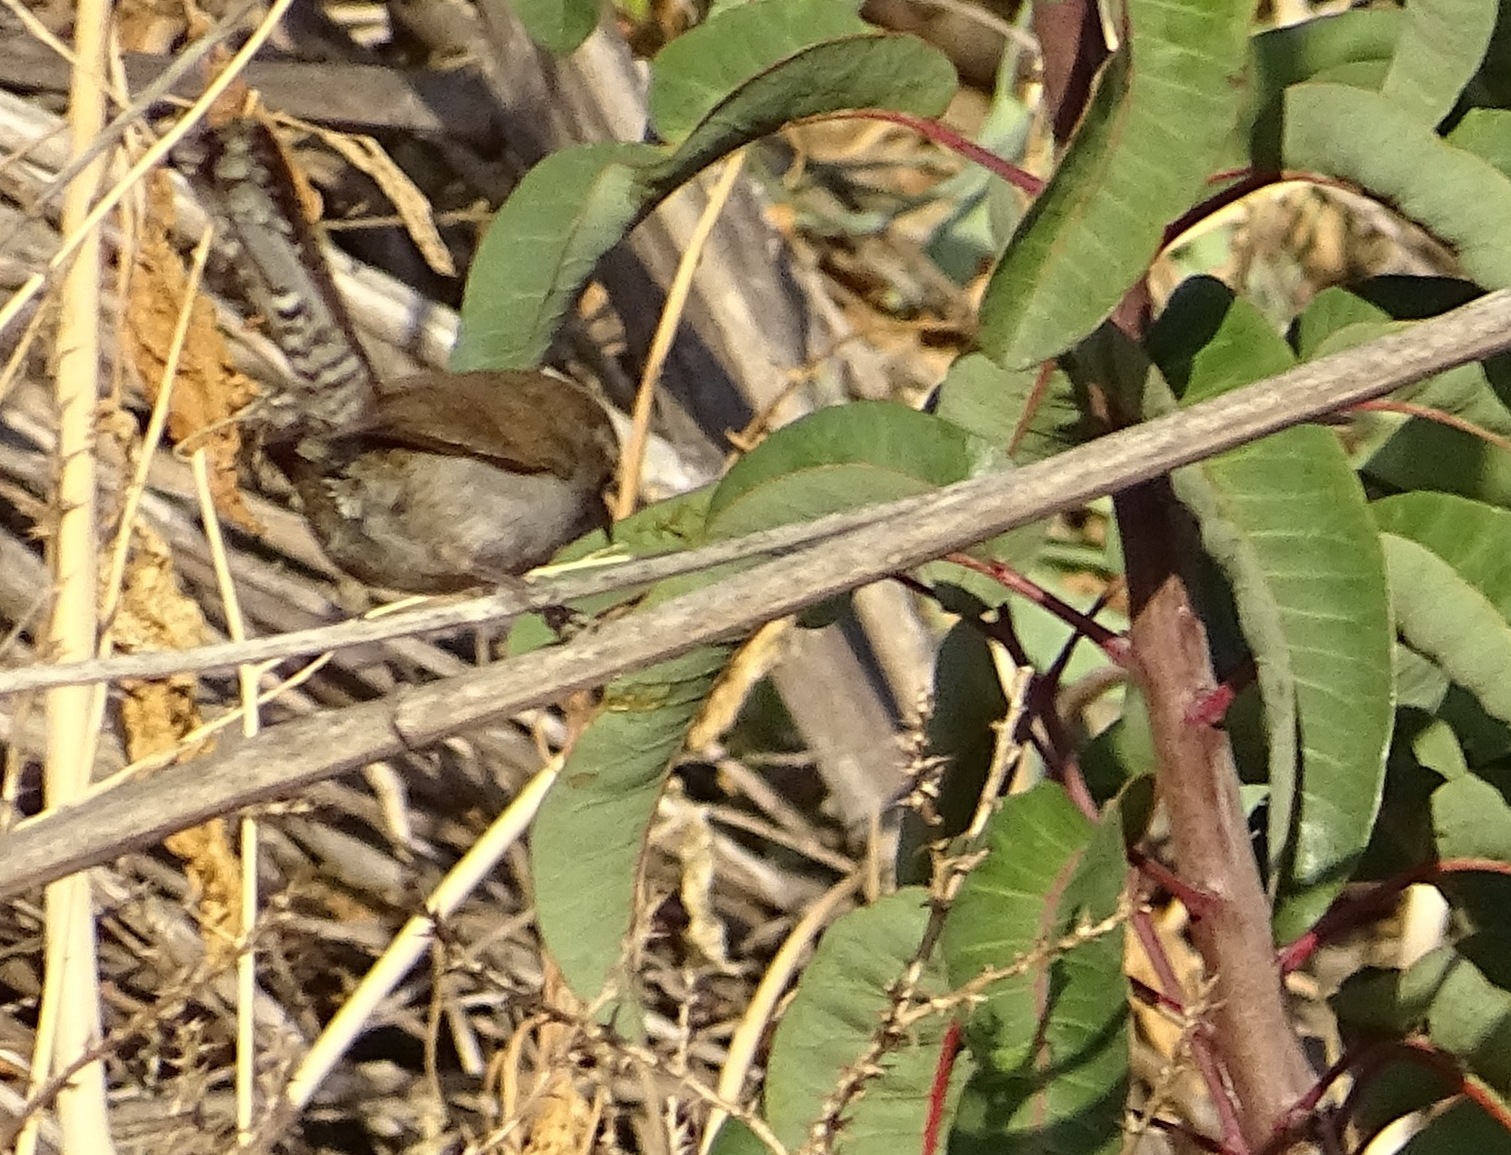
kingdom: Animalia
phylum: Chordata
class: Aves
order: Passeriformes
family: Troglodytidae
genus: Thryomanes
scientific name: Thryomanes bewickii
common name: Bewick's wren
